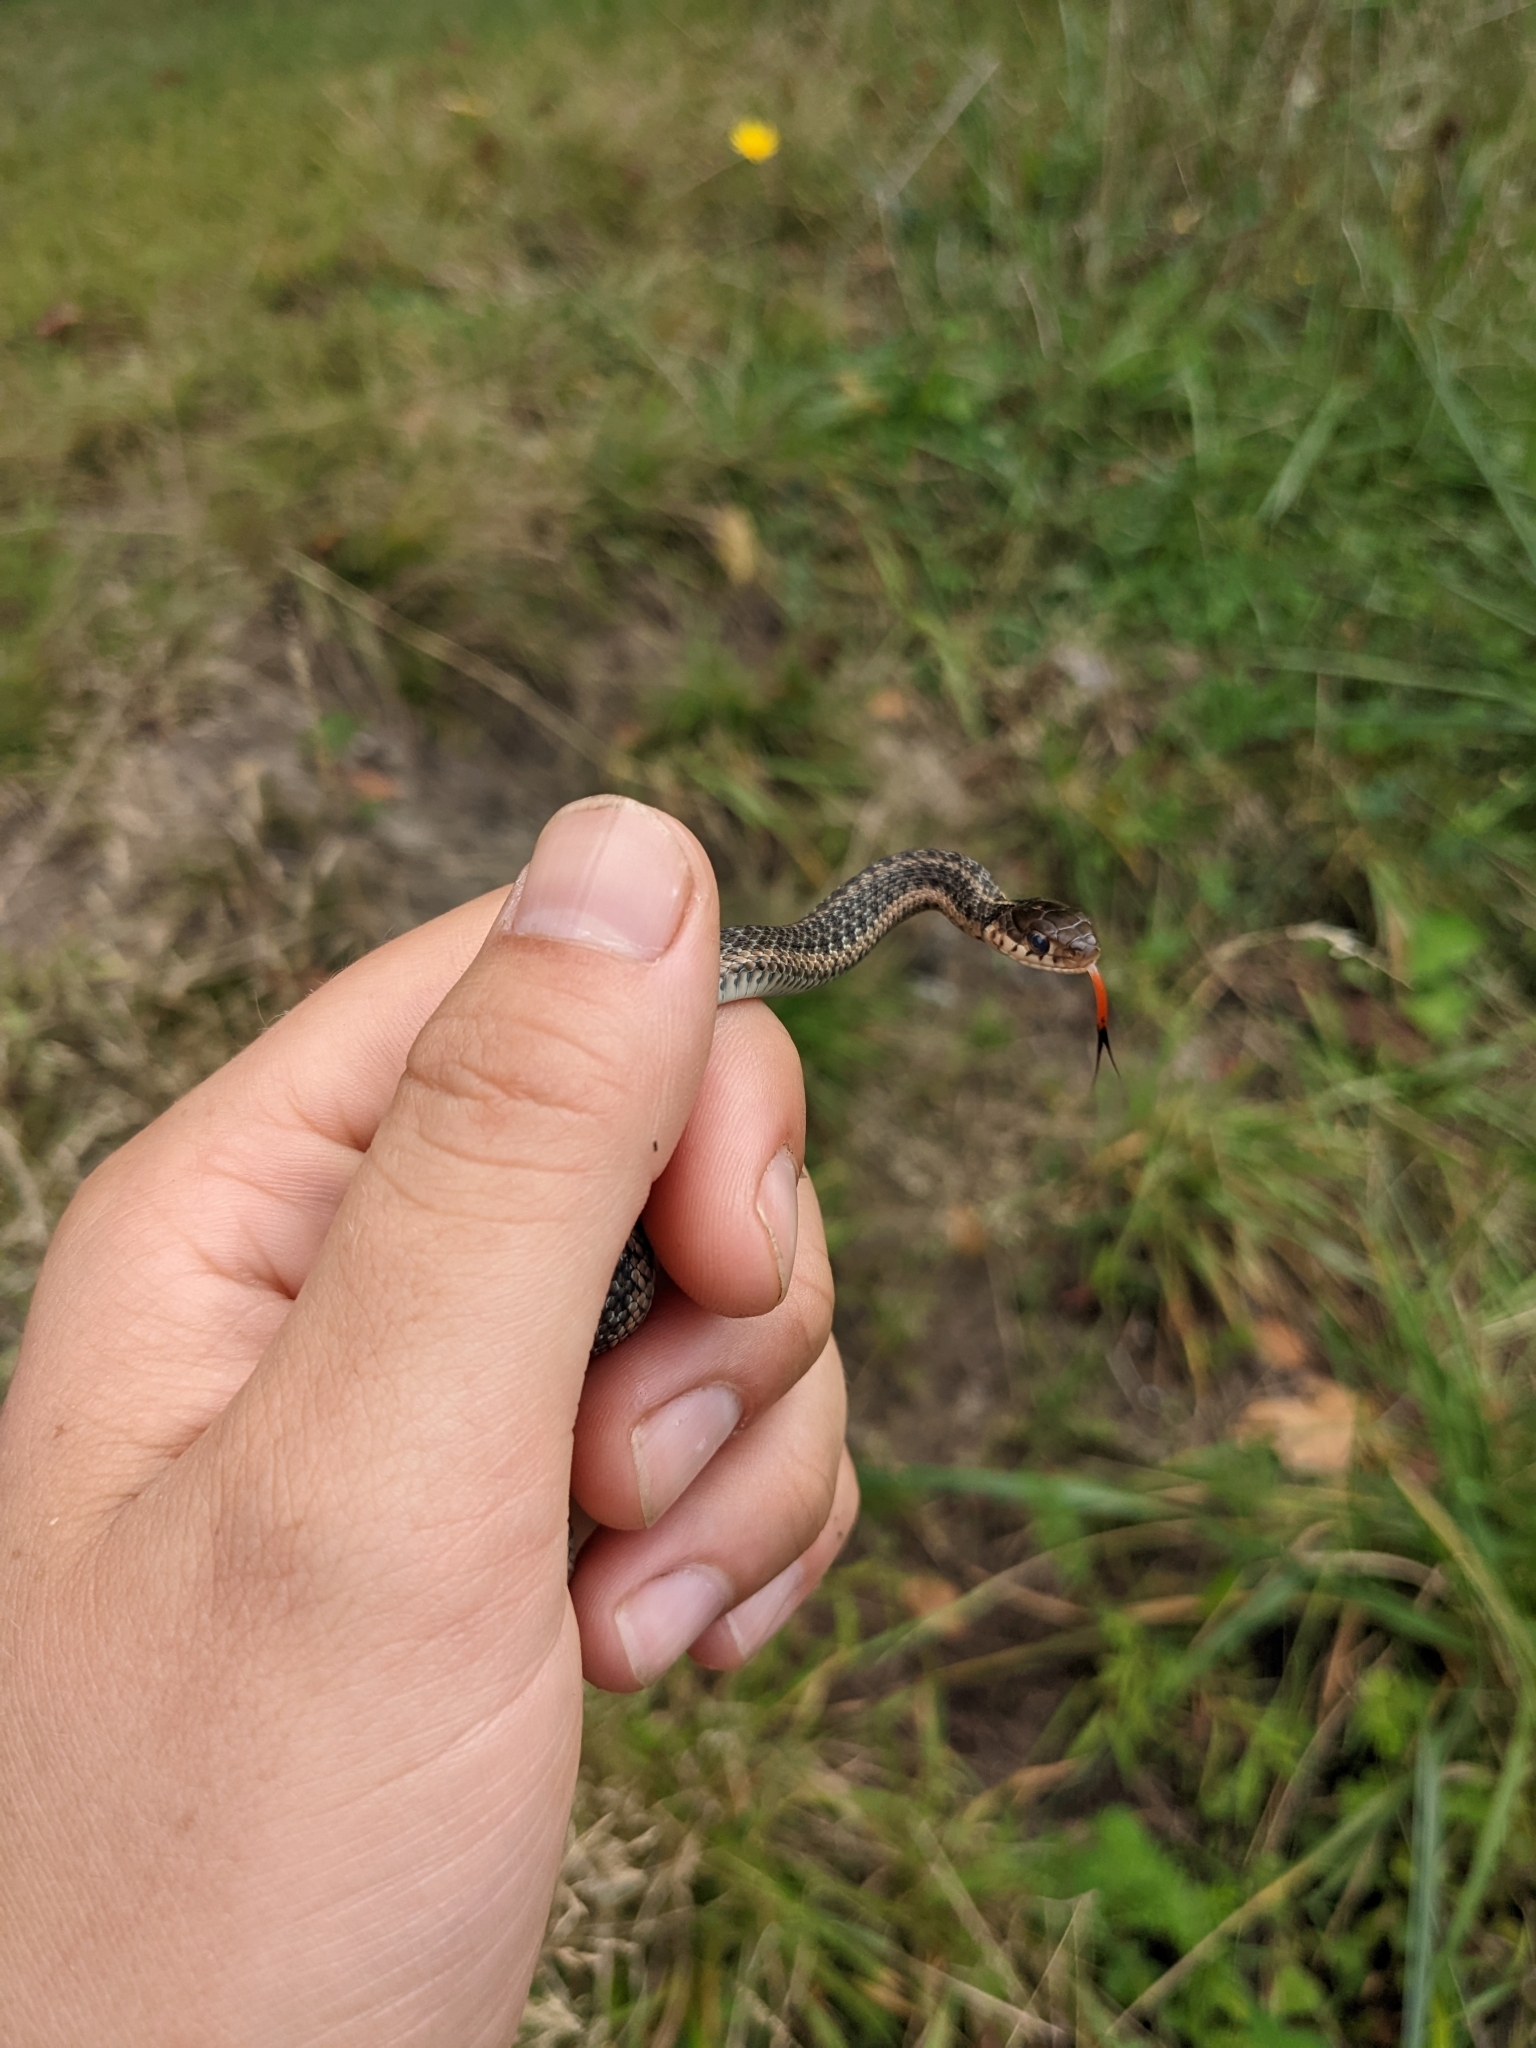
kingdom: Animalia
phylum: Chordata
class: Squamata
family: Colubridae
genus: Thamnophis
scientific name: Thamnophis sirtalis
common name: Common garter snake
